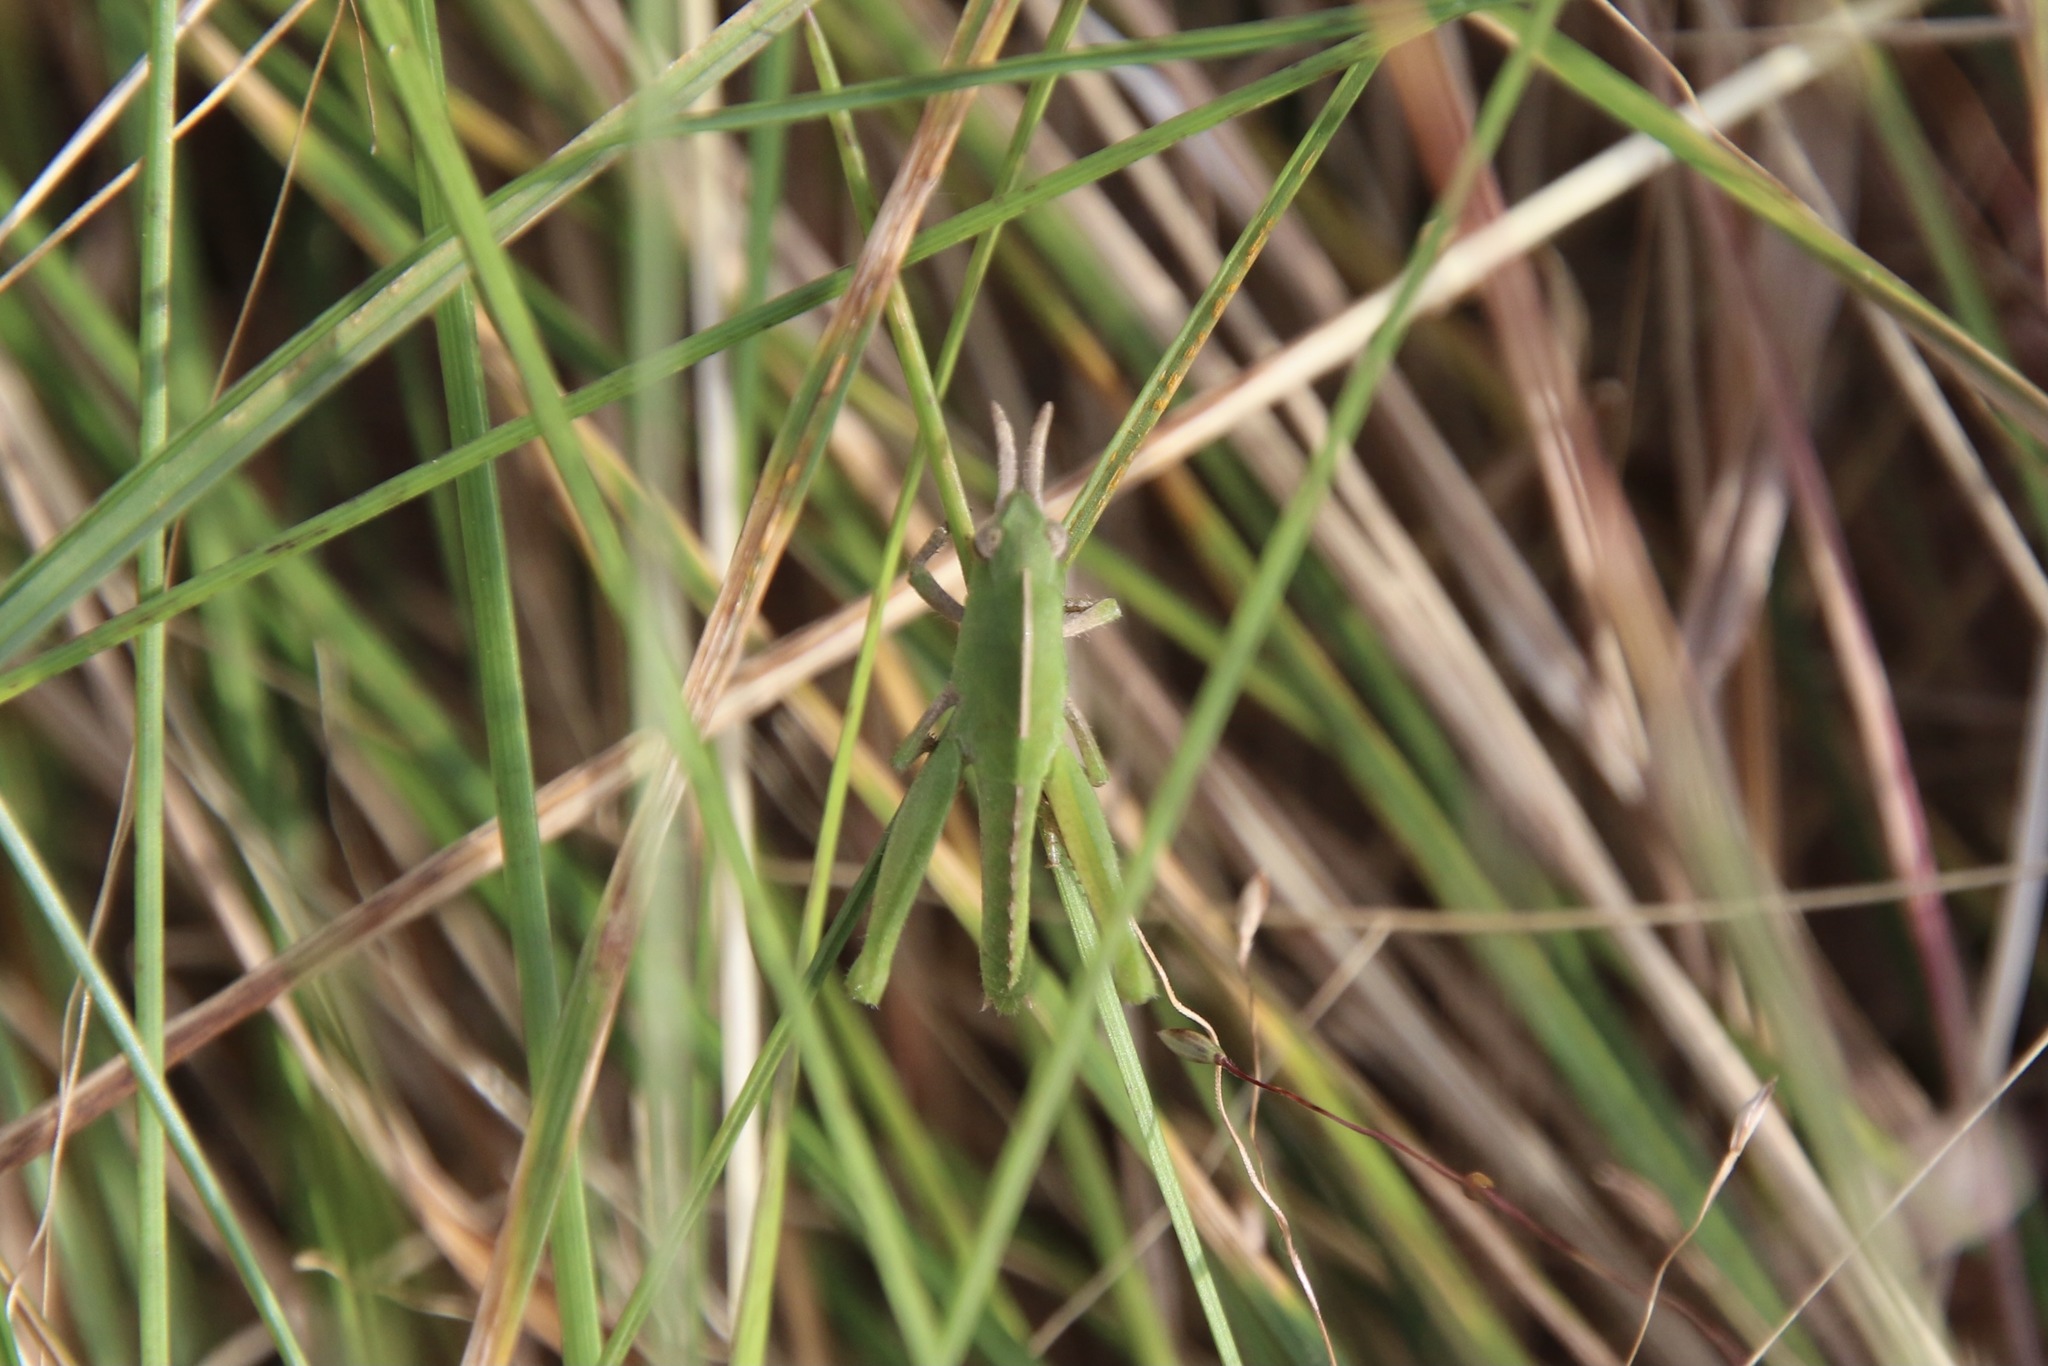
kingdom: Animalia
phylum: Arthropoda
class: Insecta
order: Orthoptera
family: Acrididae
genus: Chortophaga
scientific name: Chortophaga viridifasciata
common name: Green-striped grasshopper
